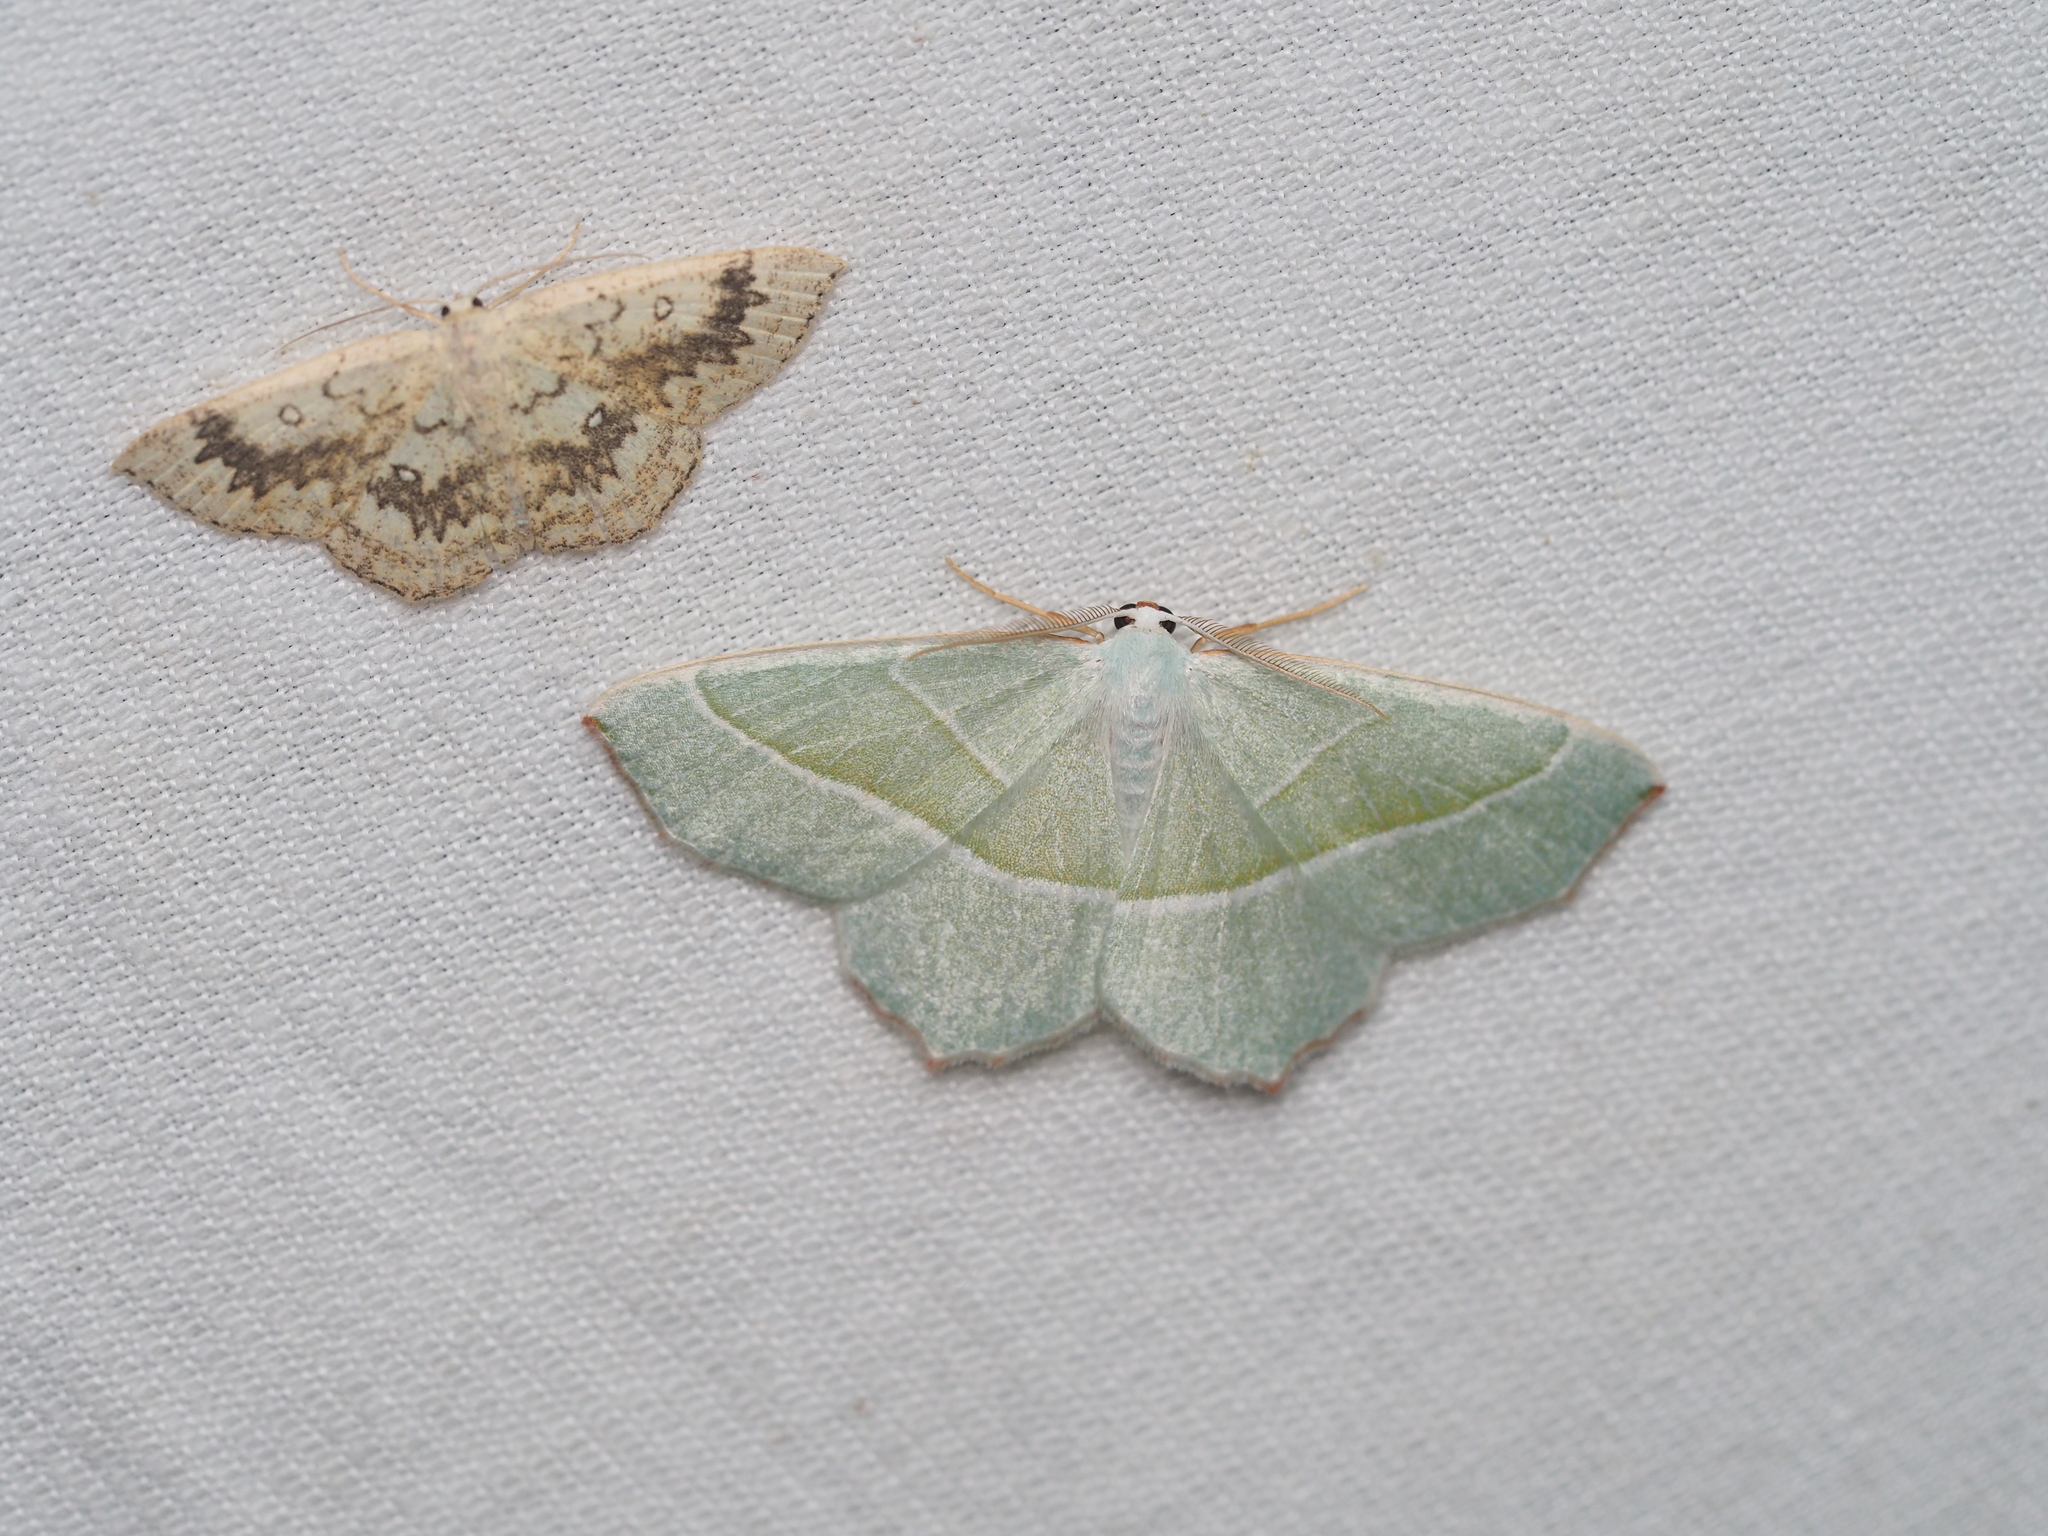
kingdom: Animalia
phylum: Arthropoda
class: Insecta
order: Lepidoptera
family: Geometridae
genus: Campaea
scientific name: Campaea margaritaria
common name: Light emerald
